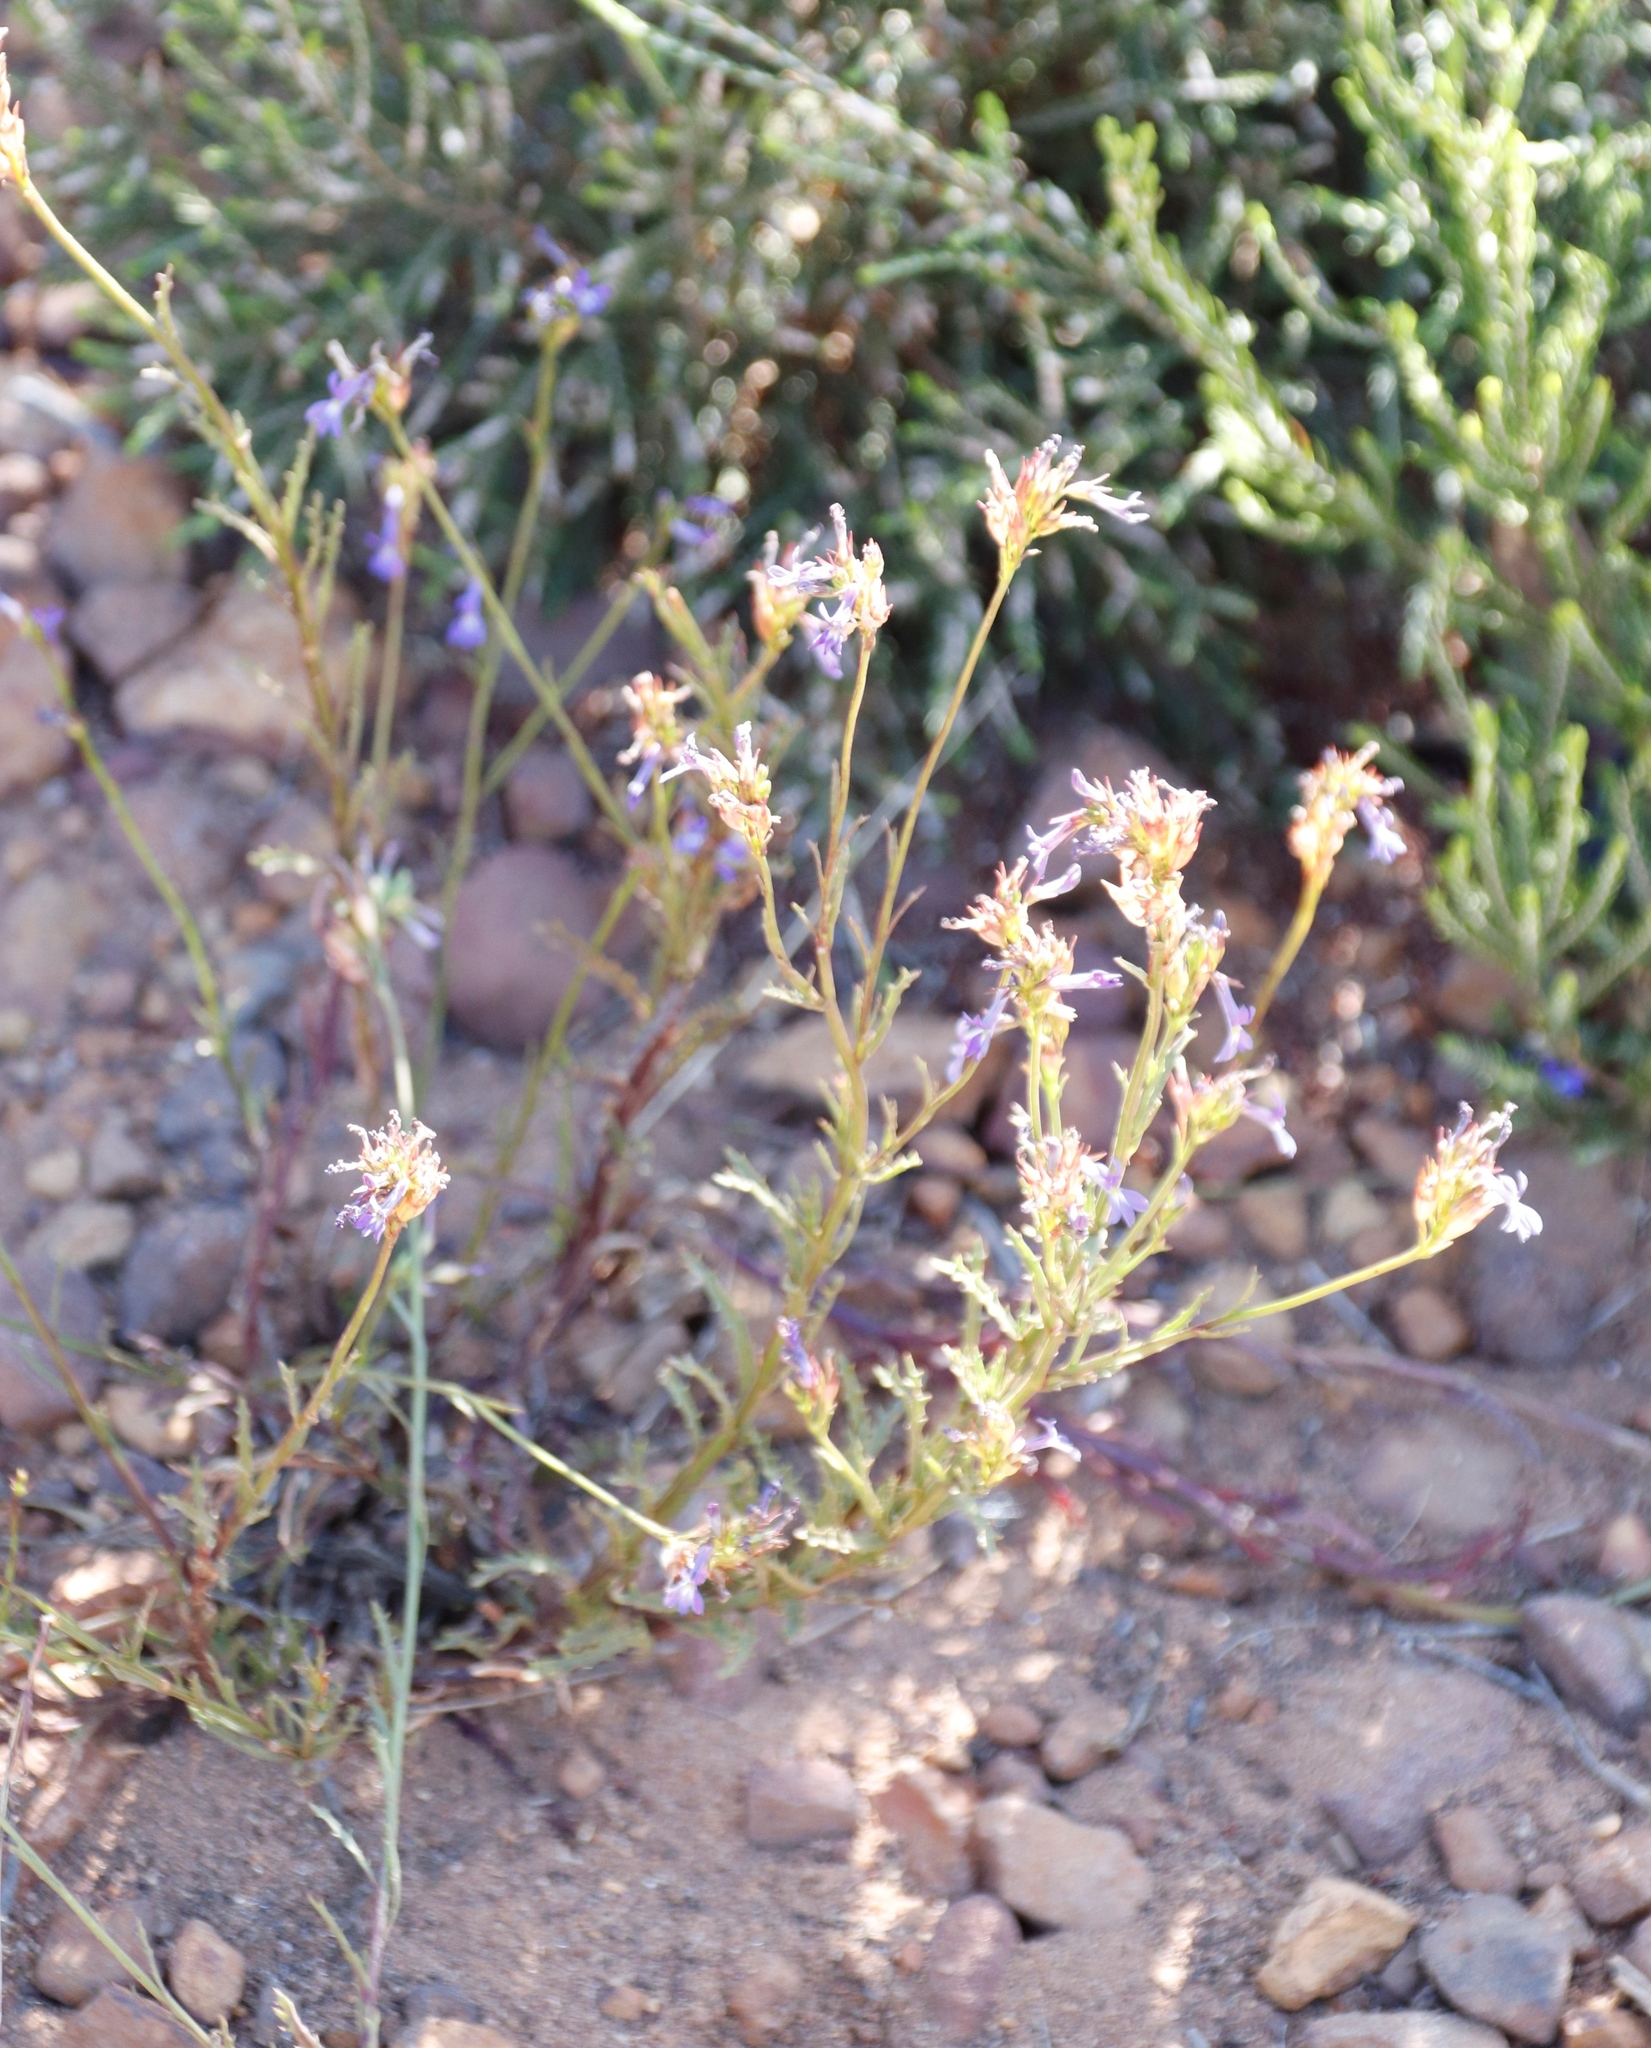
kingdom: Plantae
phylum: Tracheophyta
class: Magnoliopsida
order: Asterales
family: Campanulaceae
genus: Lobelia
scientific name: Lobelia comosa
